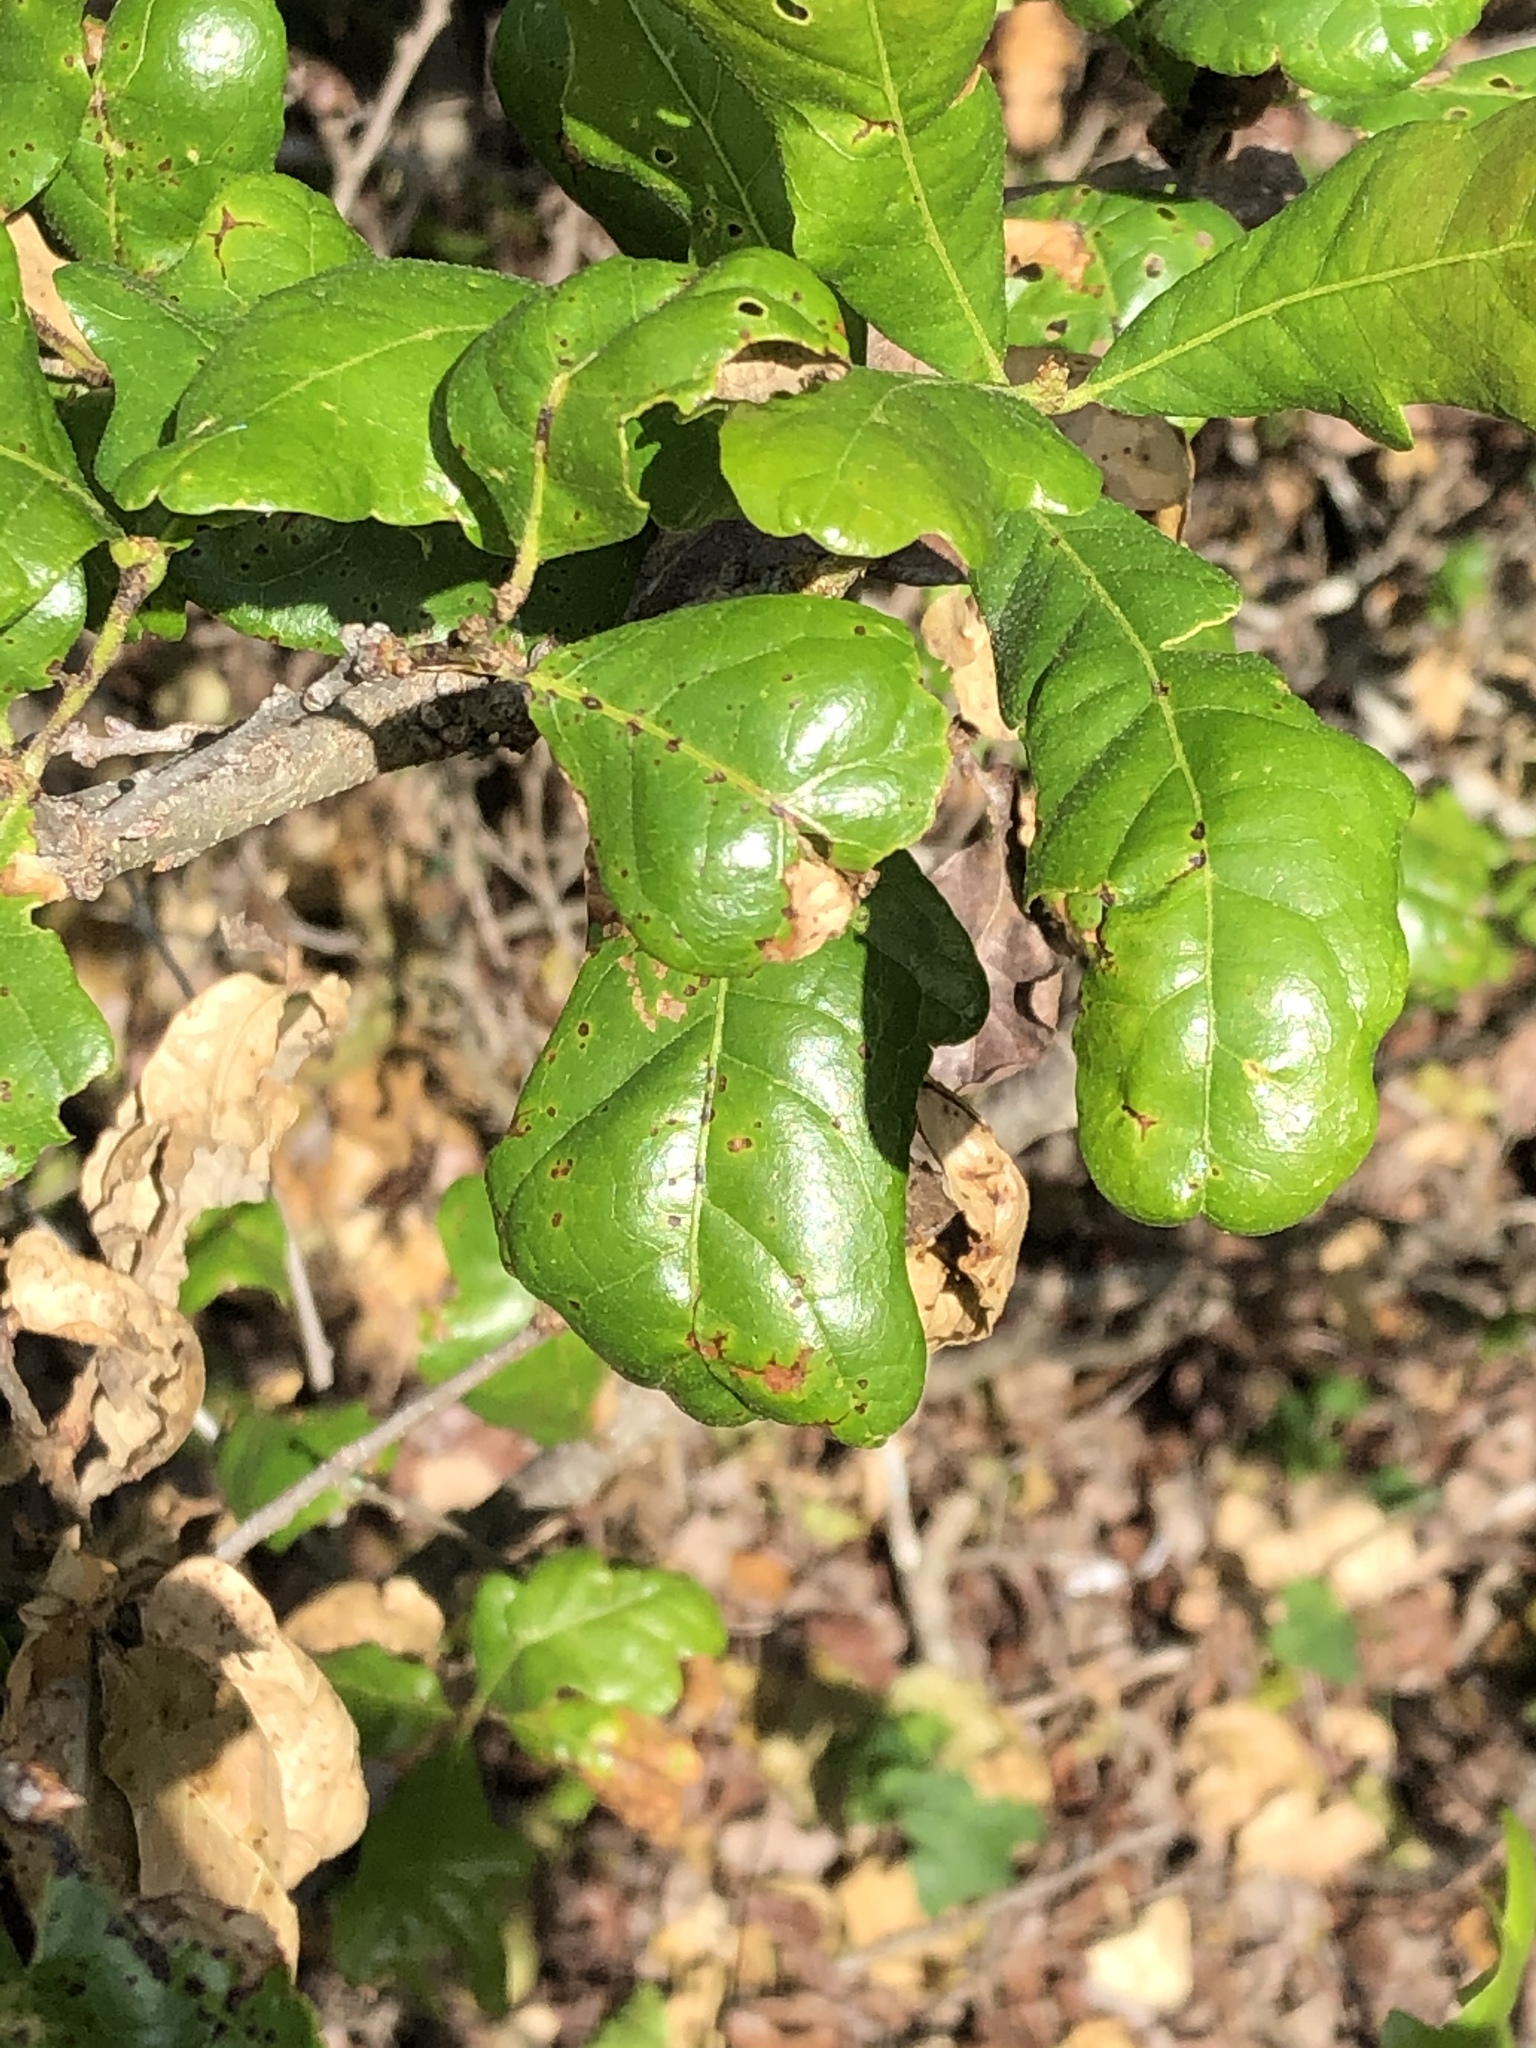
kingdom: Plantae
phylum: Tracheophyta
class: Magnoliopsida
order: Fagales
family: Fagaceae
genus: Quercus
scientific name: Quercus sinuata
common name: Durand oak
